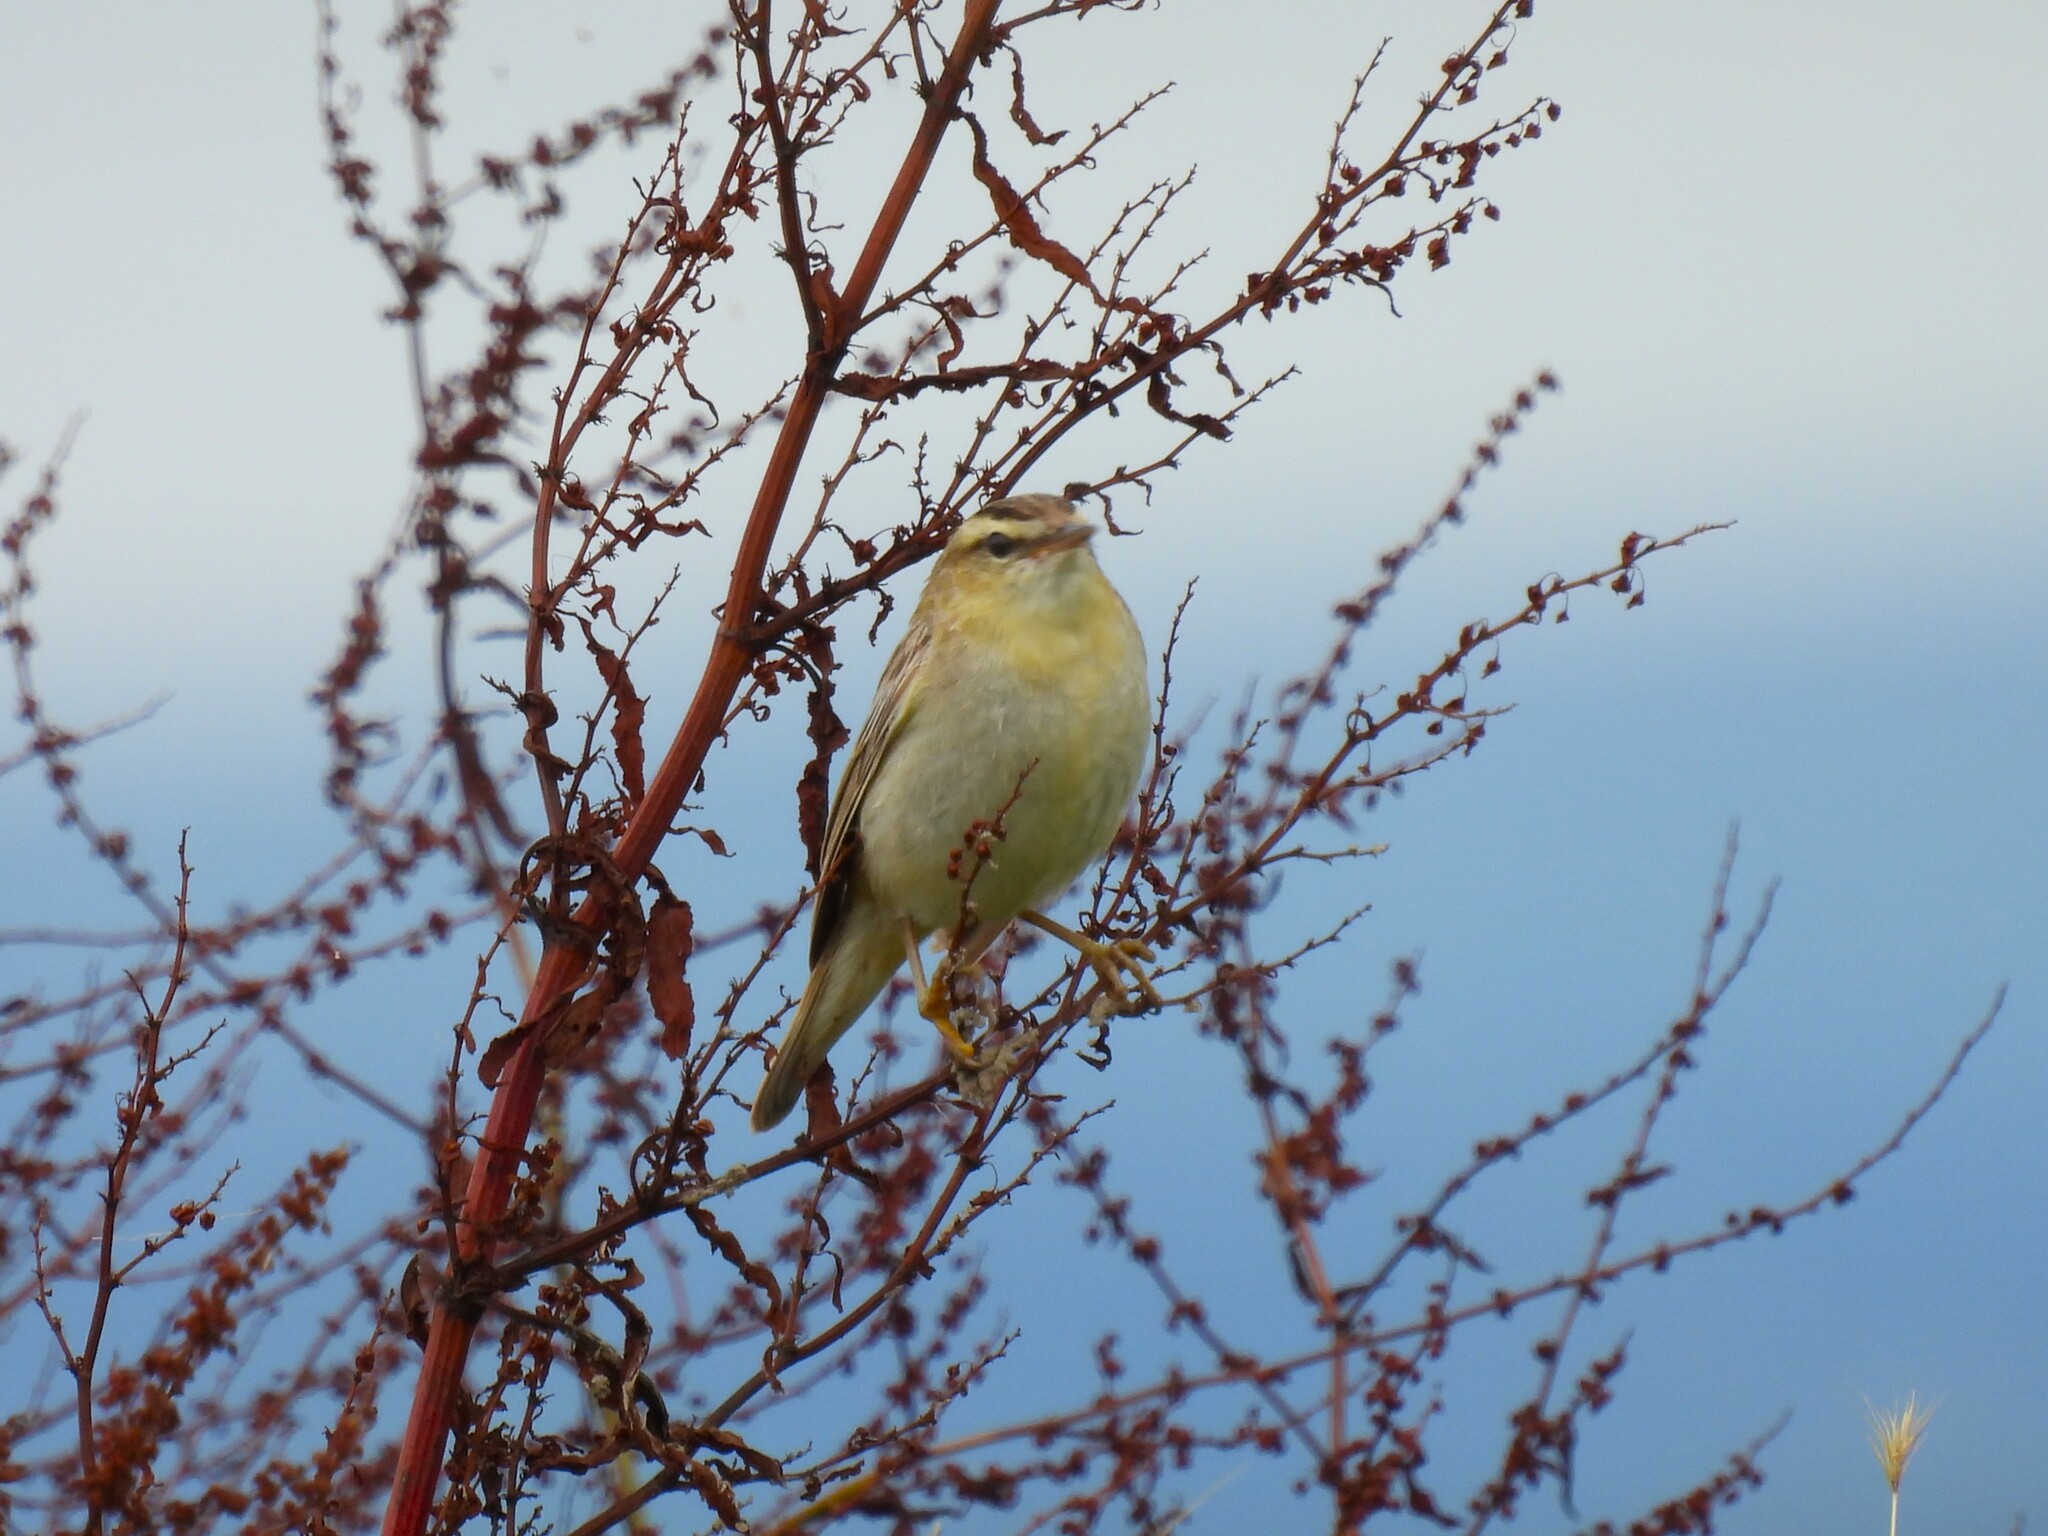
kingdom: Animalia
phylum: Chordata
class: Aves
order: Passeriformes
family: Acrocephalidae
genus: Acrocephalus
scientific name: Acrocephalus schoenobaenus
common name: Sedge warbler
